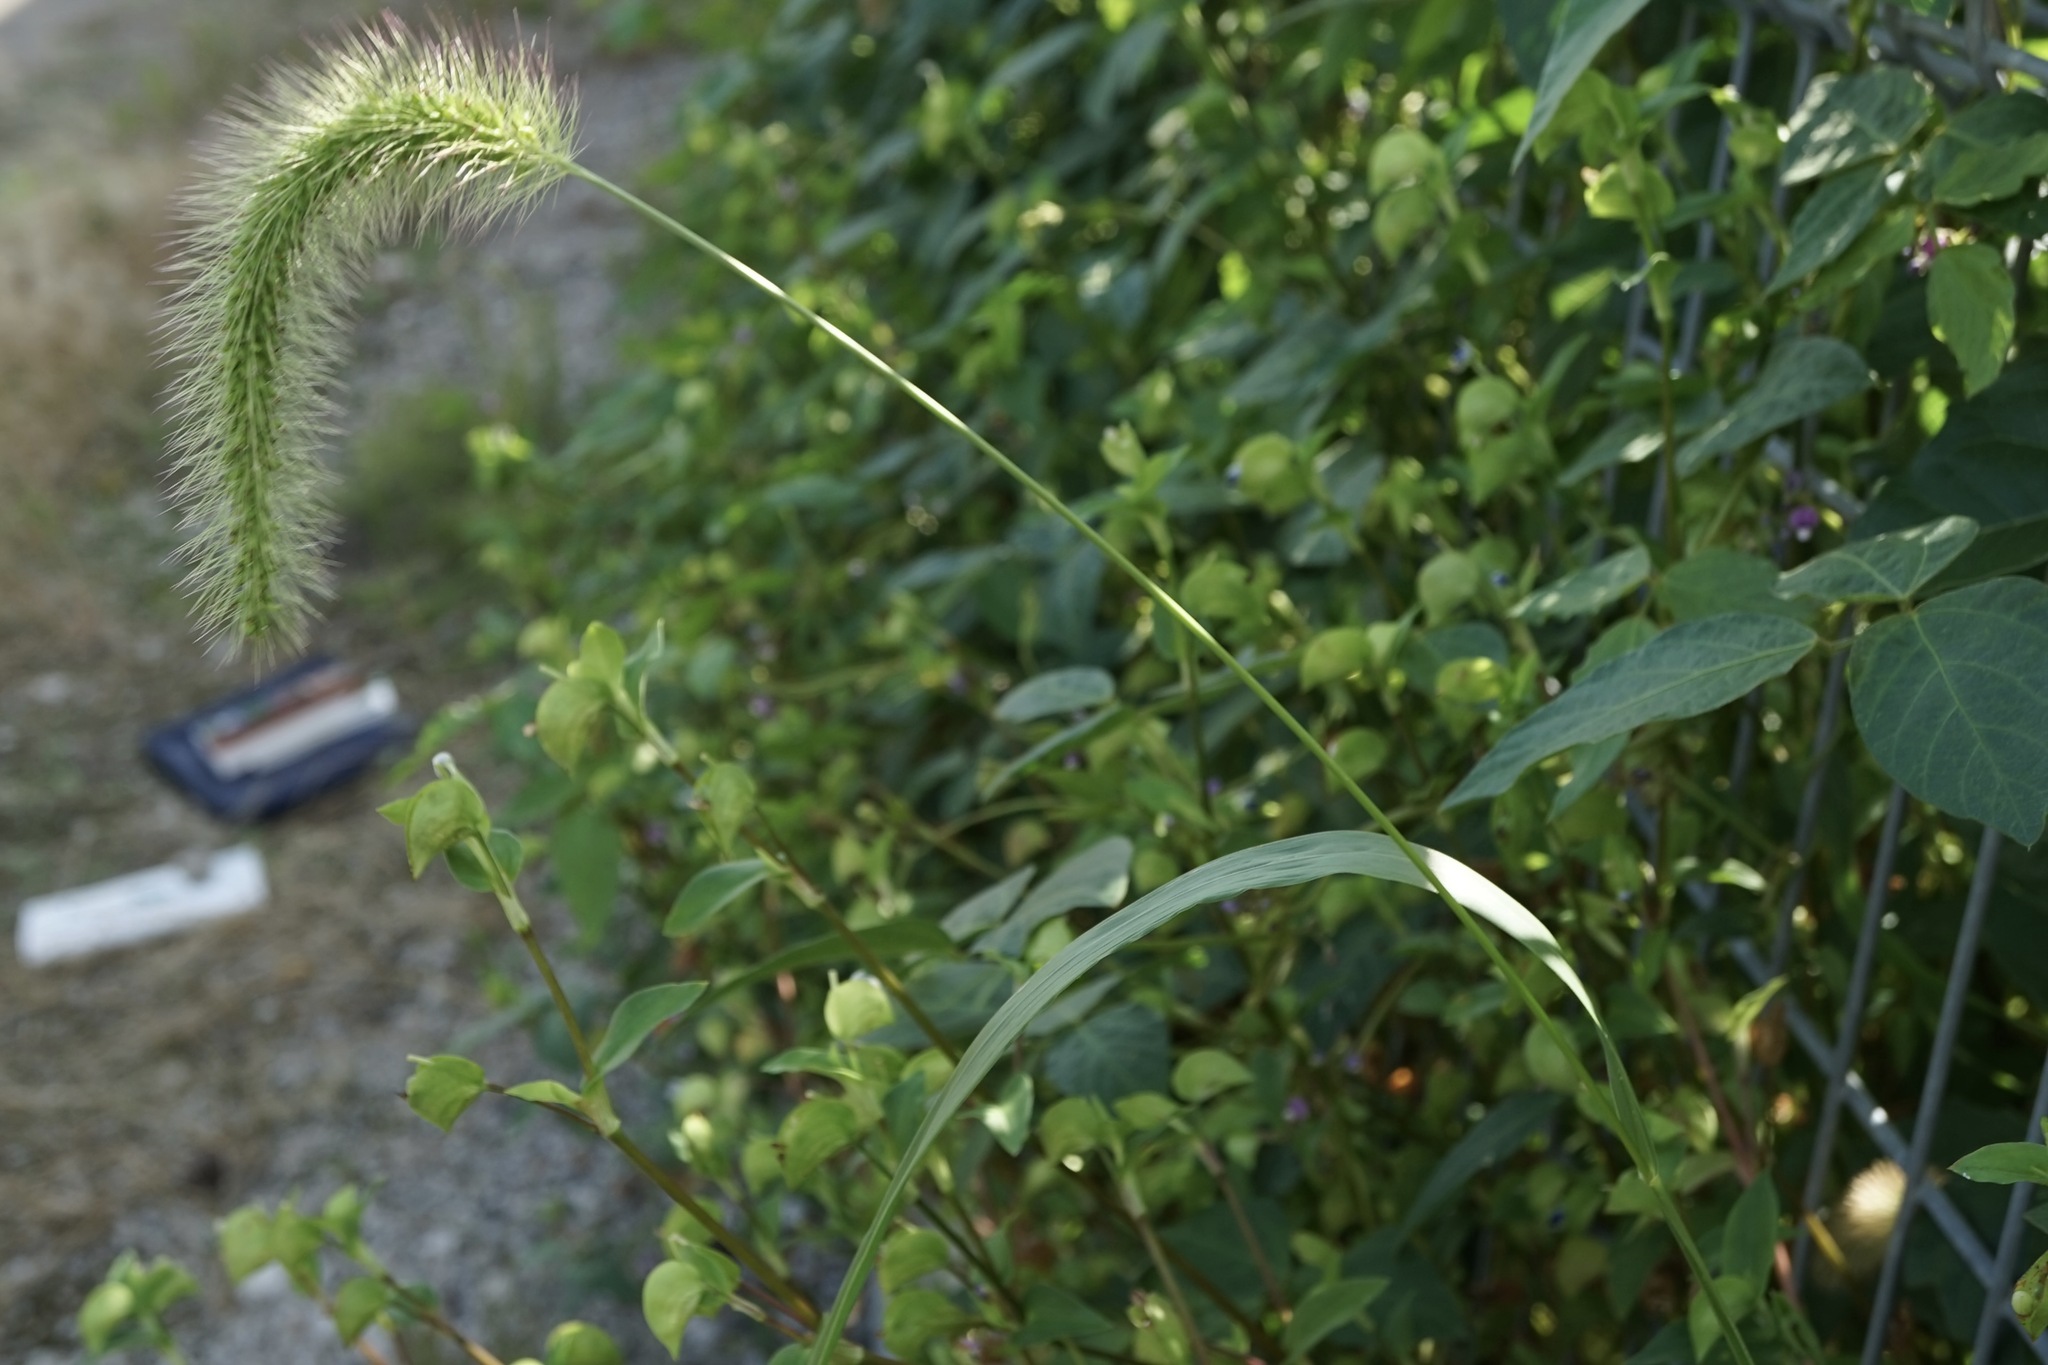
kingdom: Plantae
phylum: Tracheophyta
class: Liliopsida
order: Poales
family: Poaceae
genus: Setaria
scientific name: Setaria faberi
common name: Nodding bristle-grass
